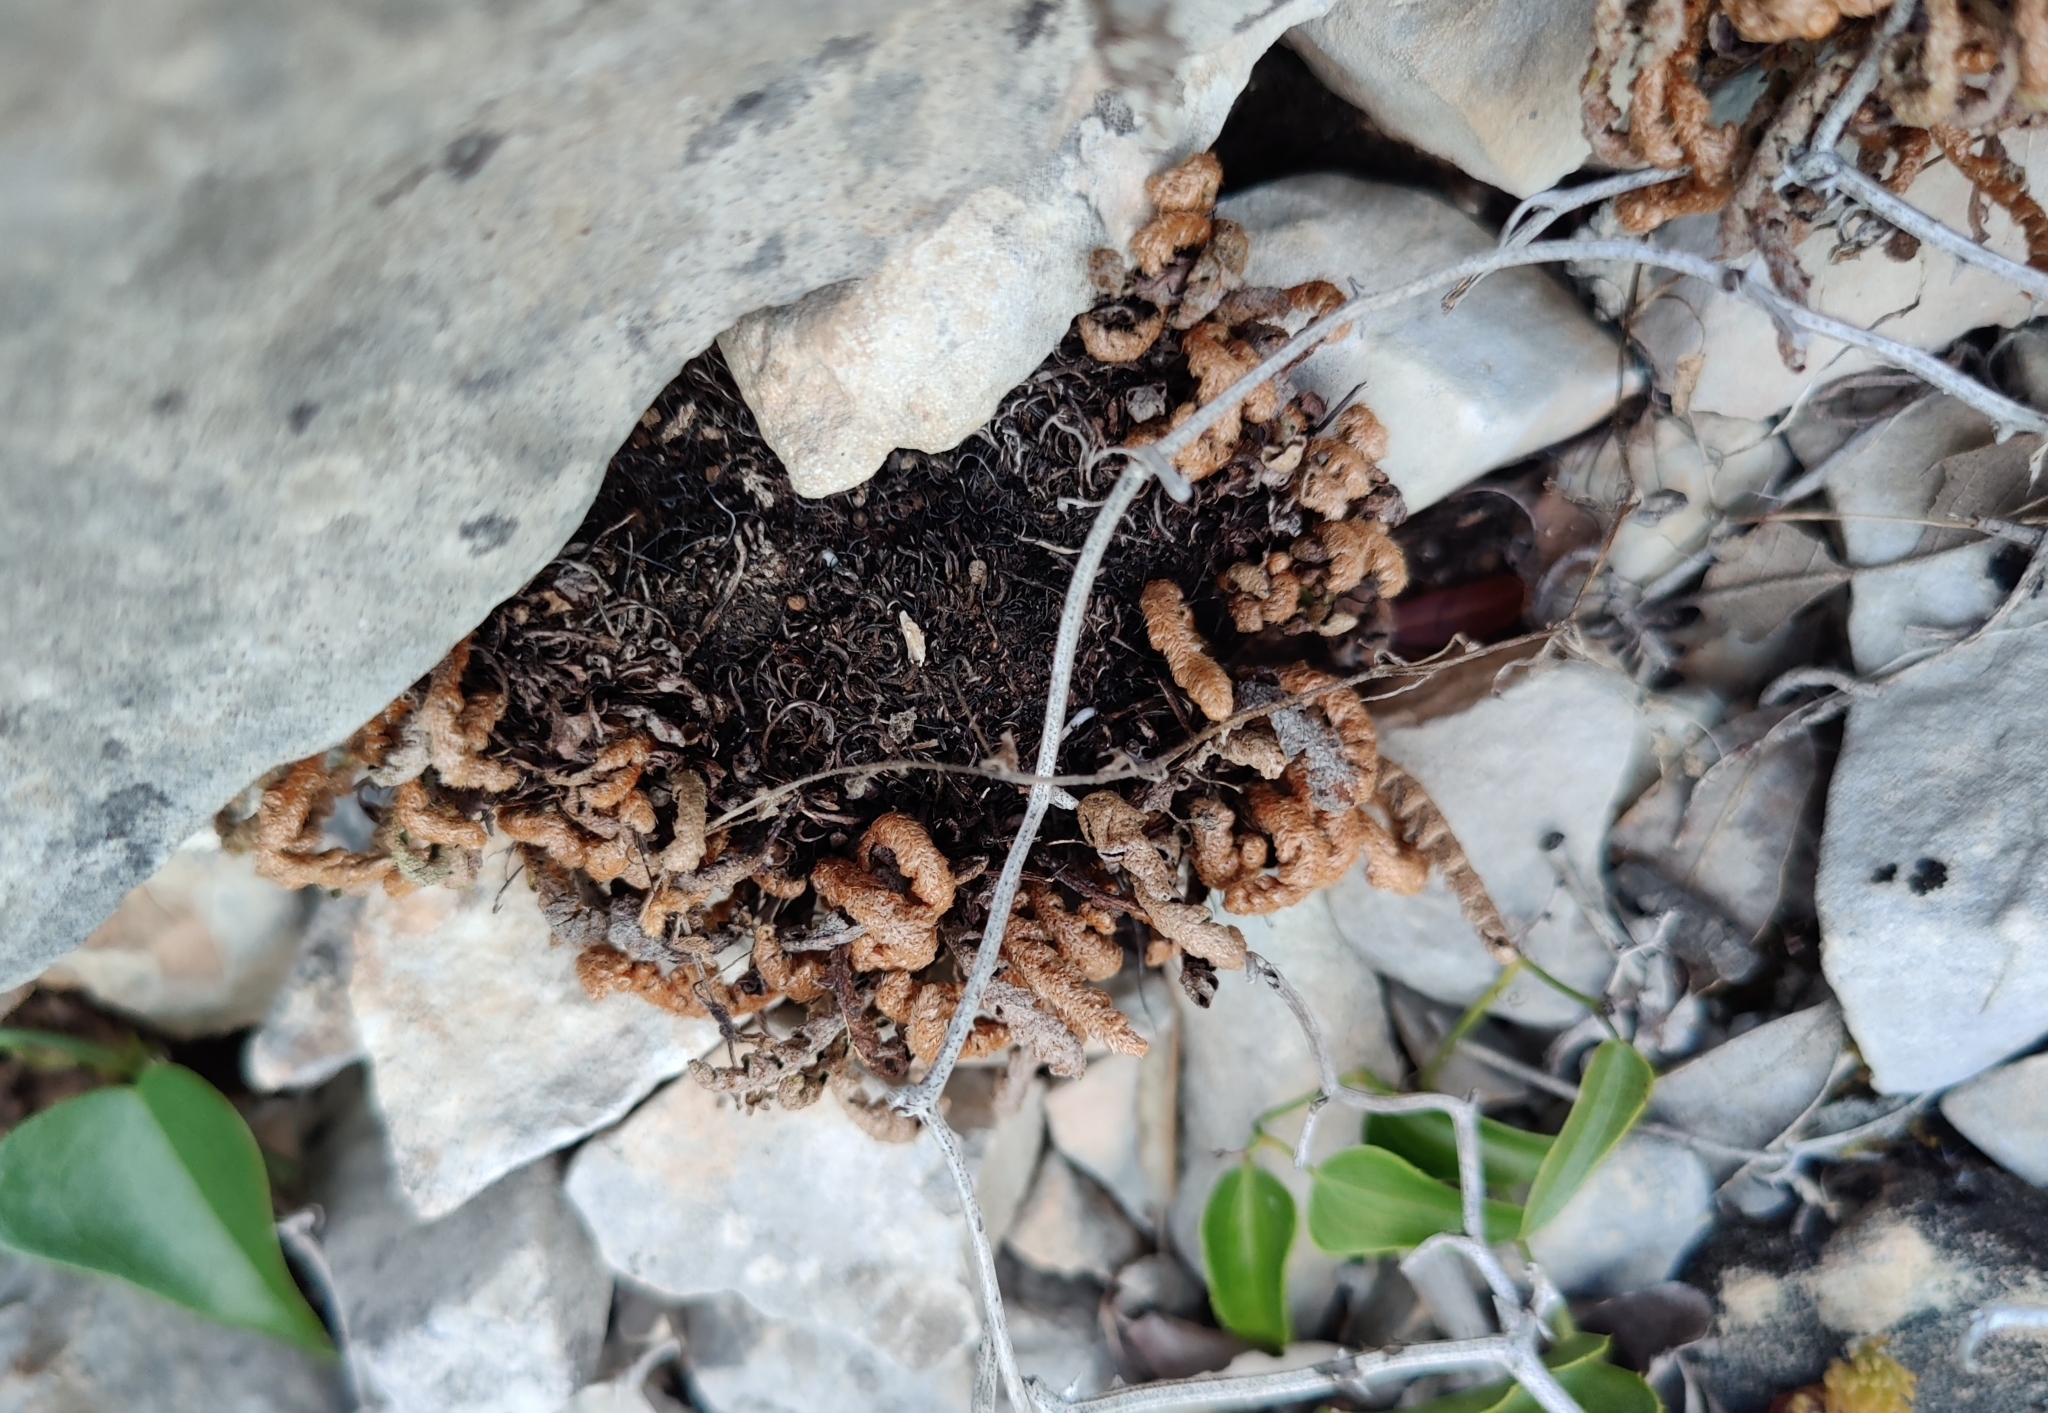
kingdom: Plantae
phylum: Tracheophyta
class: Polypodiopsida
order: Polypodiales
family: Aspleniaceae
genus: Asplenium
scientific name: Asplenium ceterach
